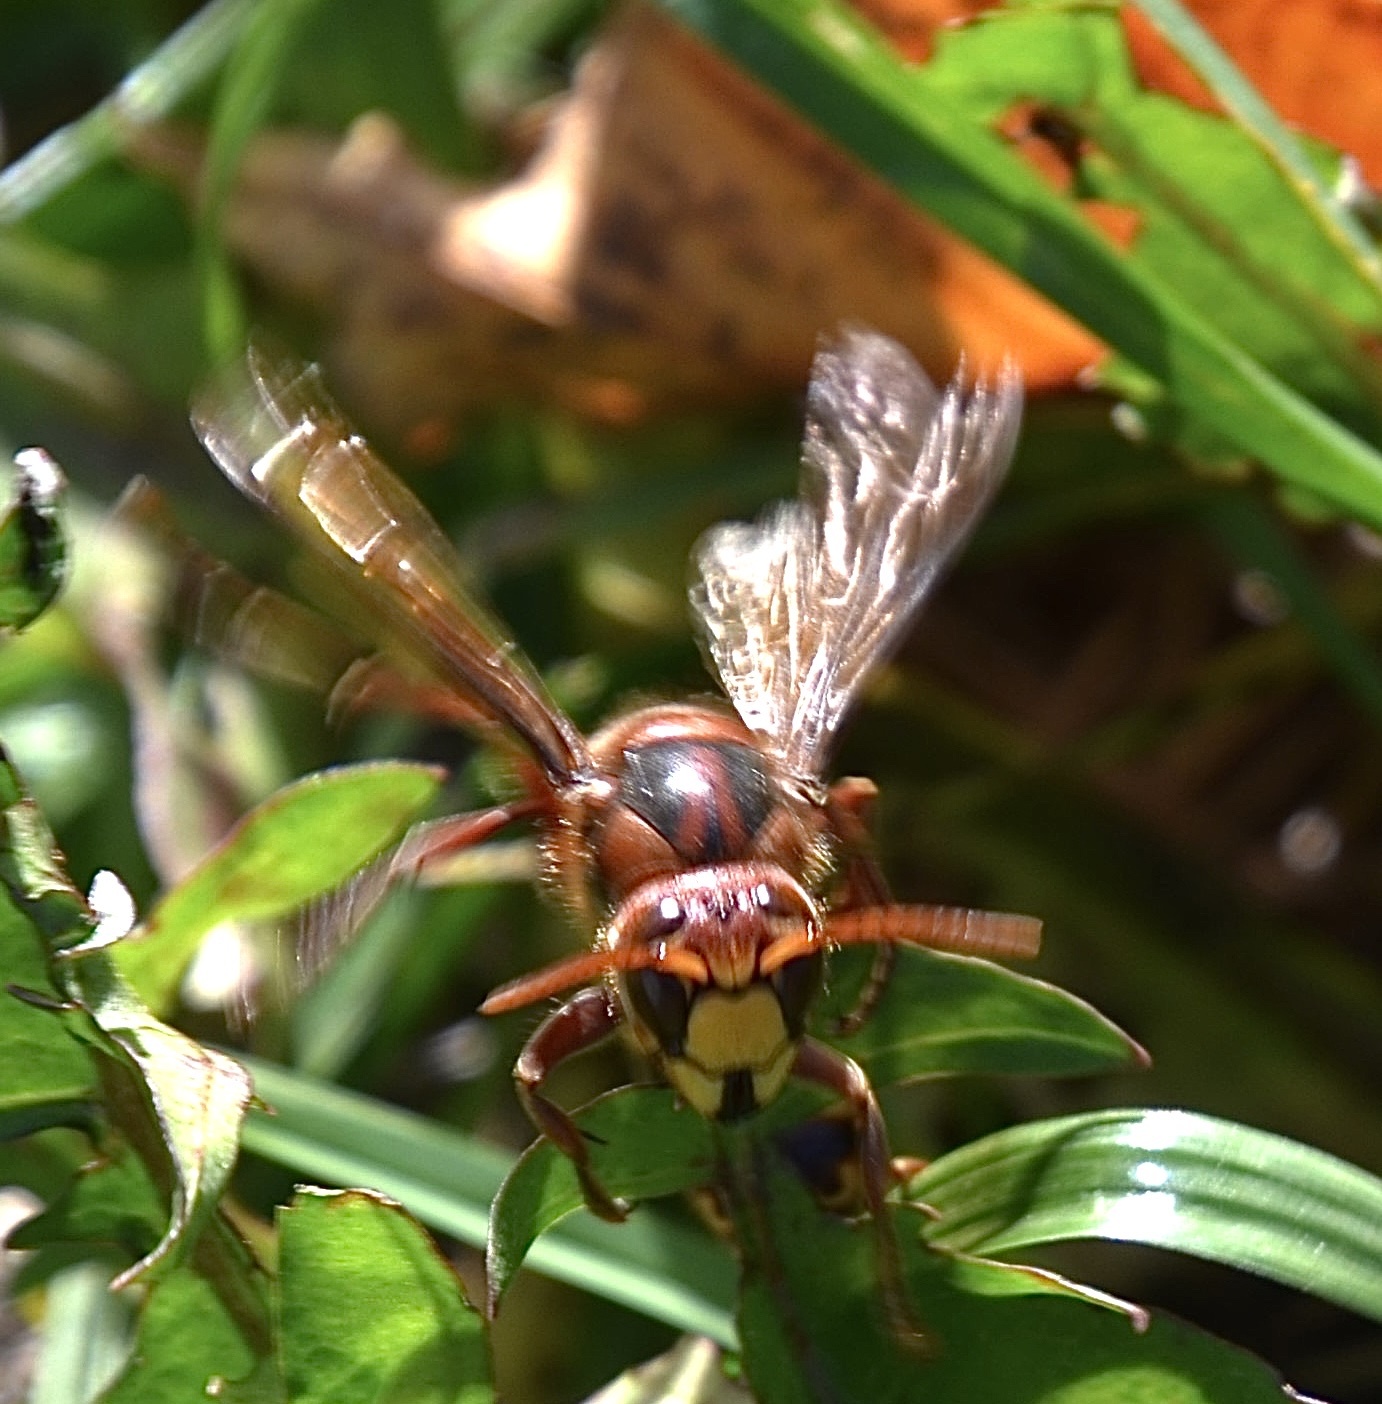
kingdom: Animalia
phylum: Arthropoda
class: Insecta
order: Hymenoptera
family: Vespidae
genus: Vespa
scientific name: Vespa crabro
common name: Hornet
